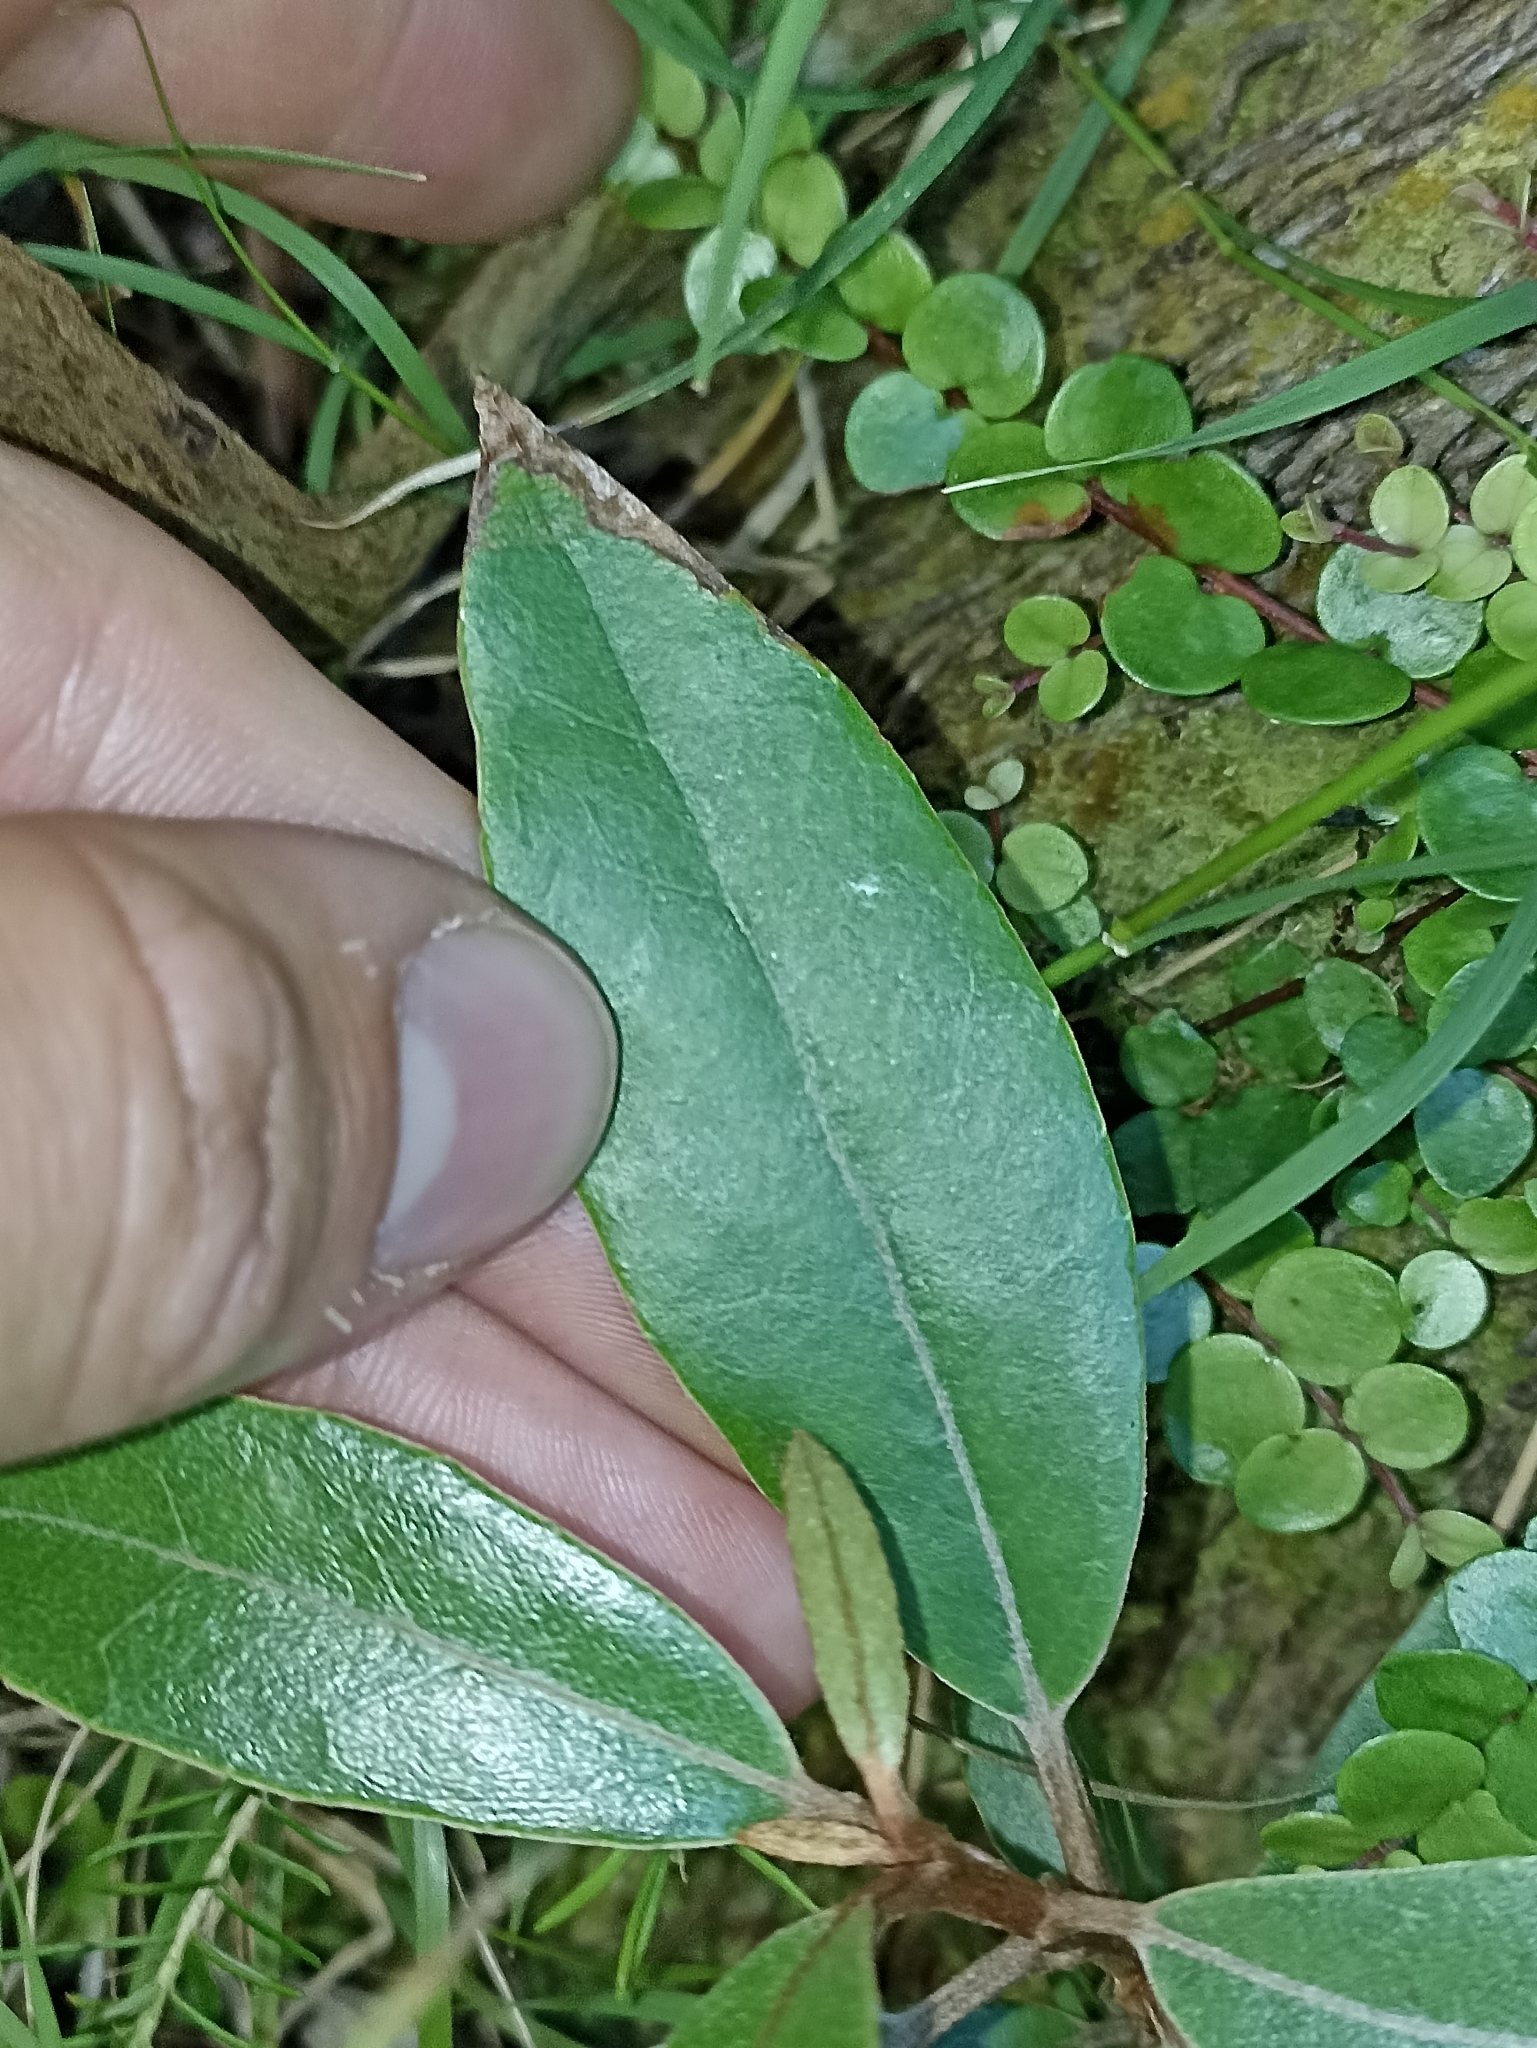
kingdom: Plantae
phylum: Tracheophyta
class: Magnoliopsida
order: Asterales
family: Asteraceae
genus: Olearia
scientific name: Olearia cheesemanii
